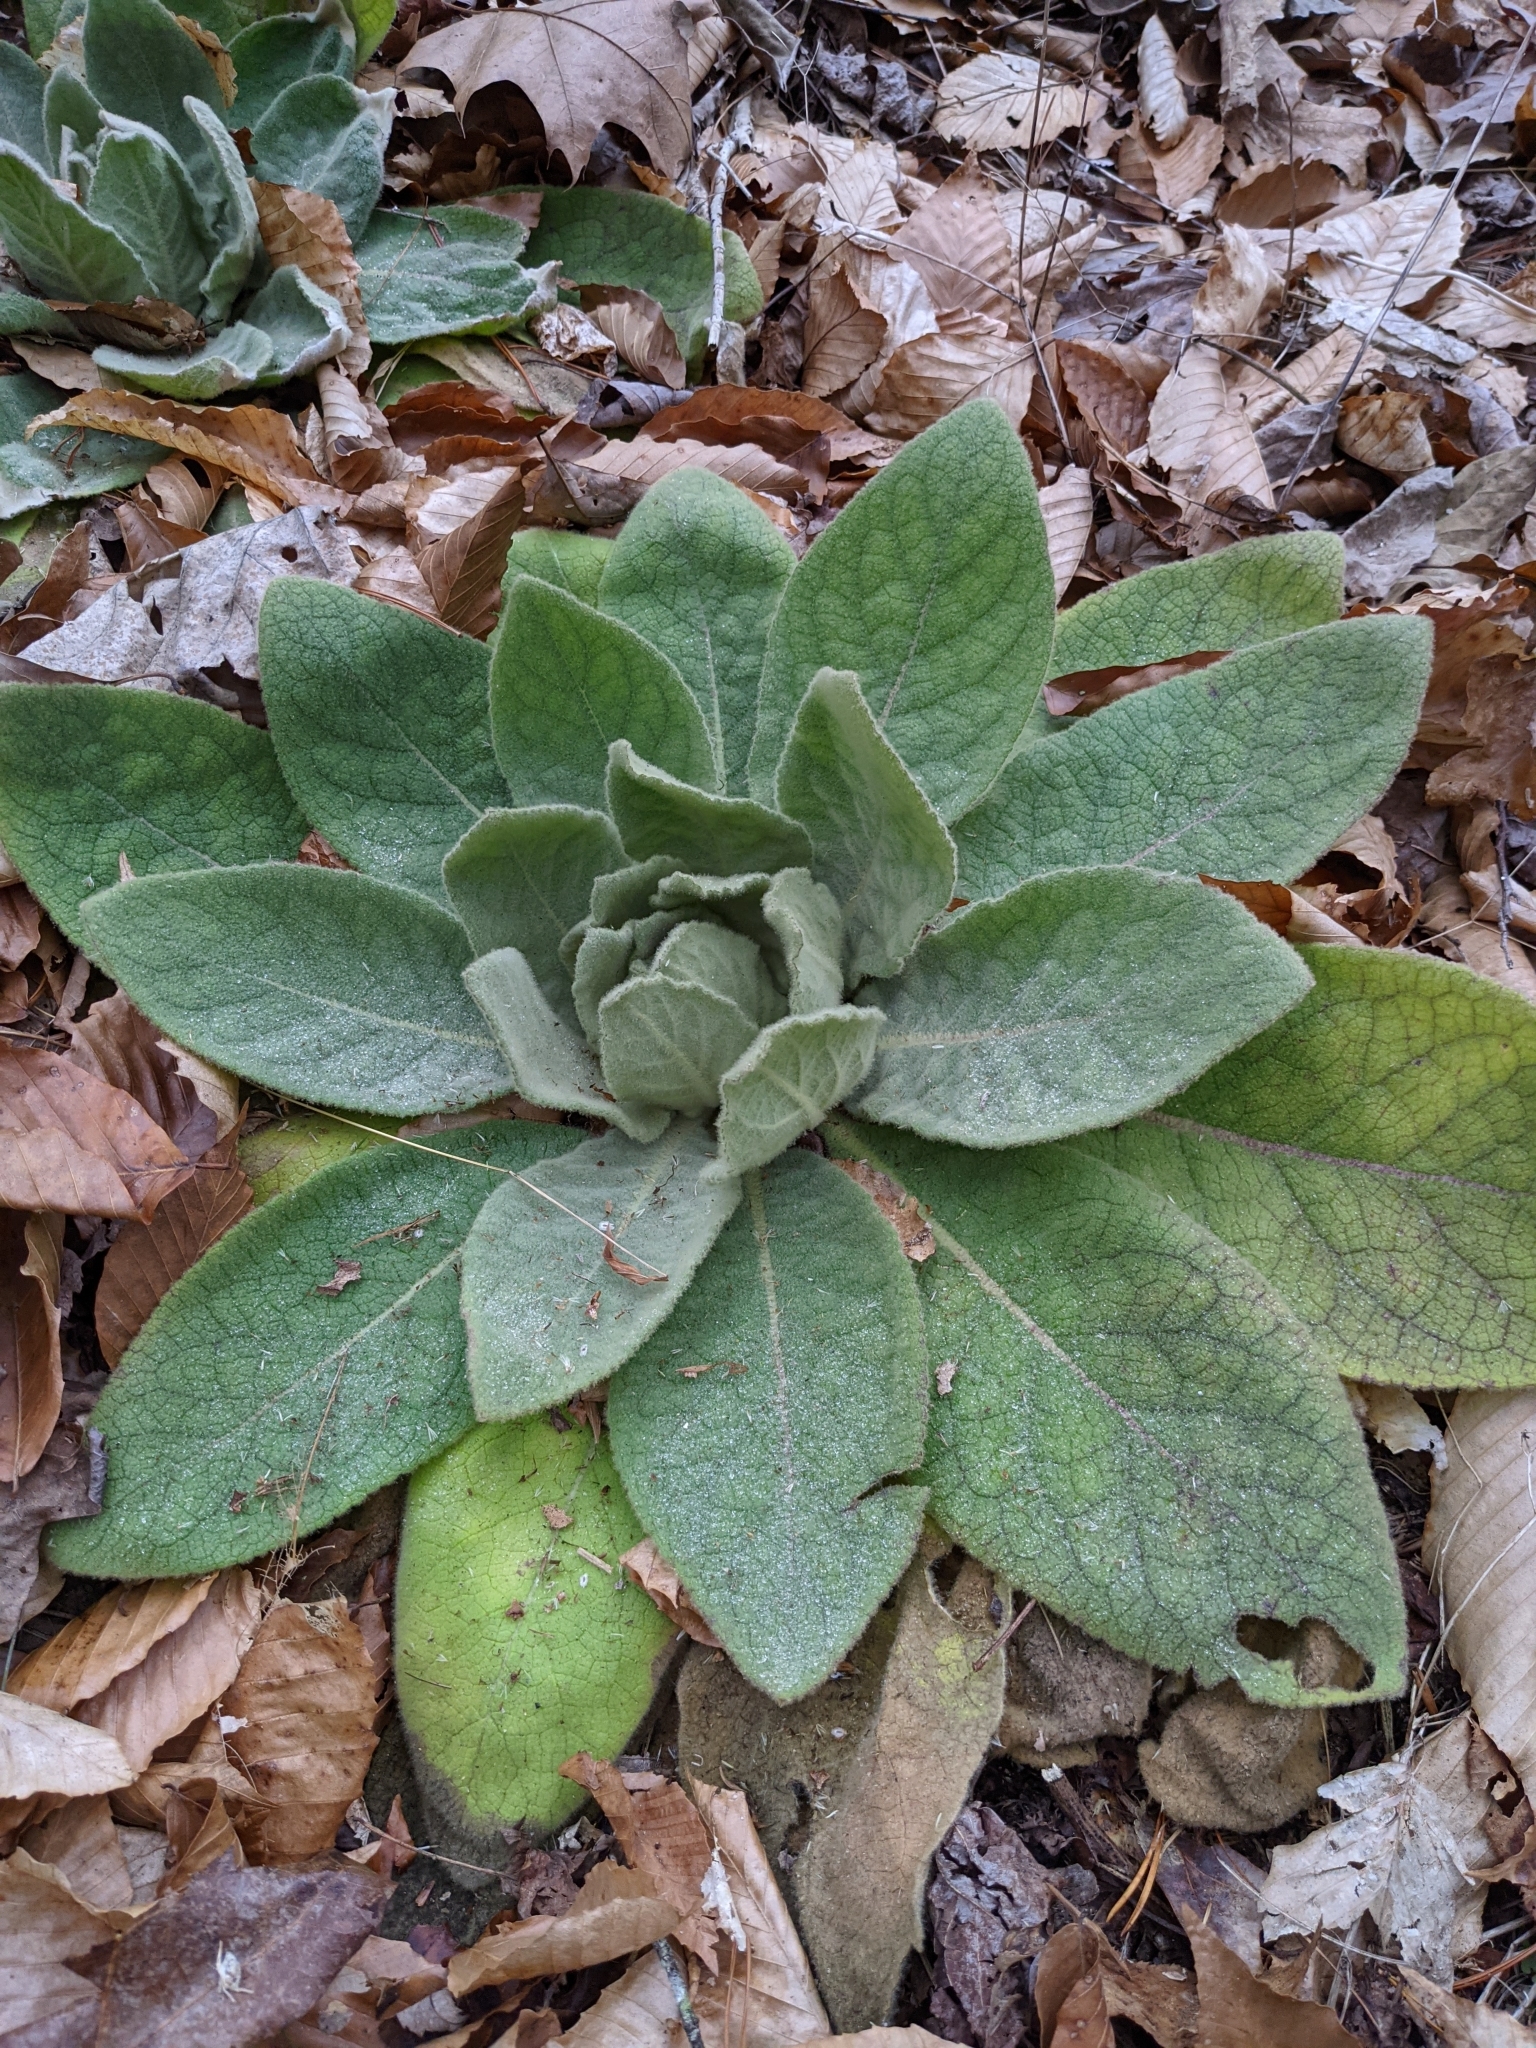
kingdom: Plantae
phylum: Tracheophyta
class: Magnoliopsida
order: Lamiales
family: Scrophulariaceae
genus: Verbascum
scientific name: Verbascum thapsus
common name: Common mullein
